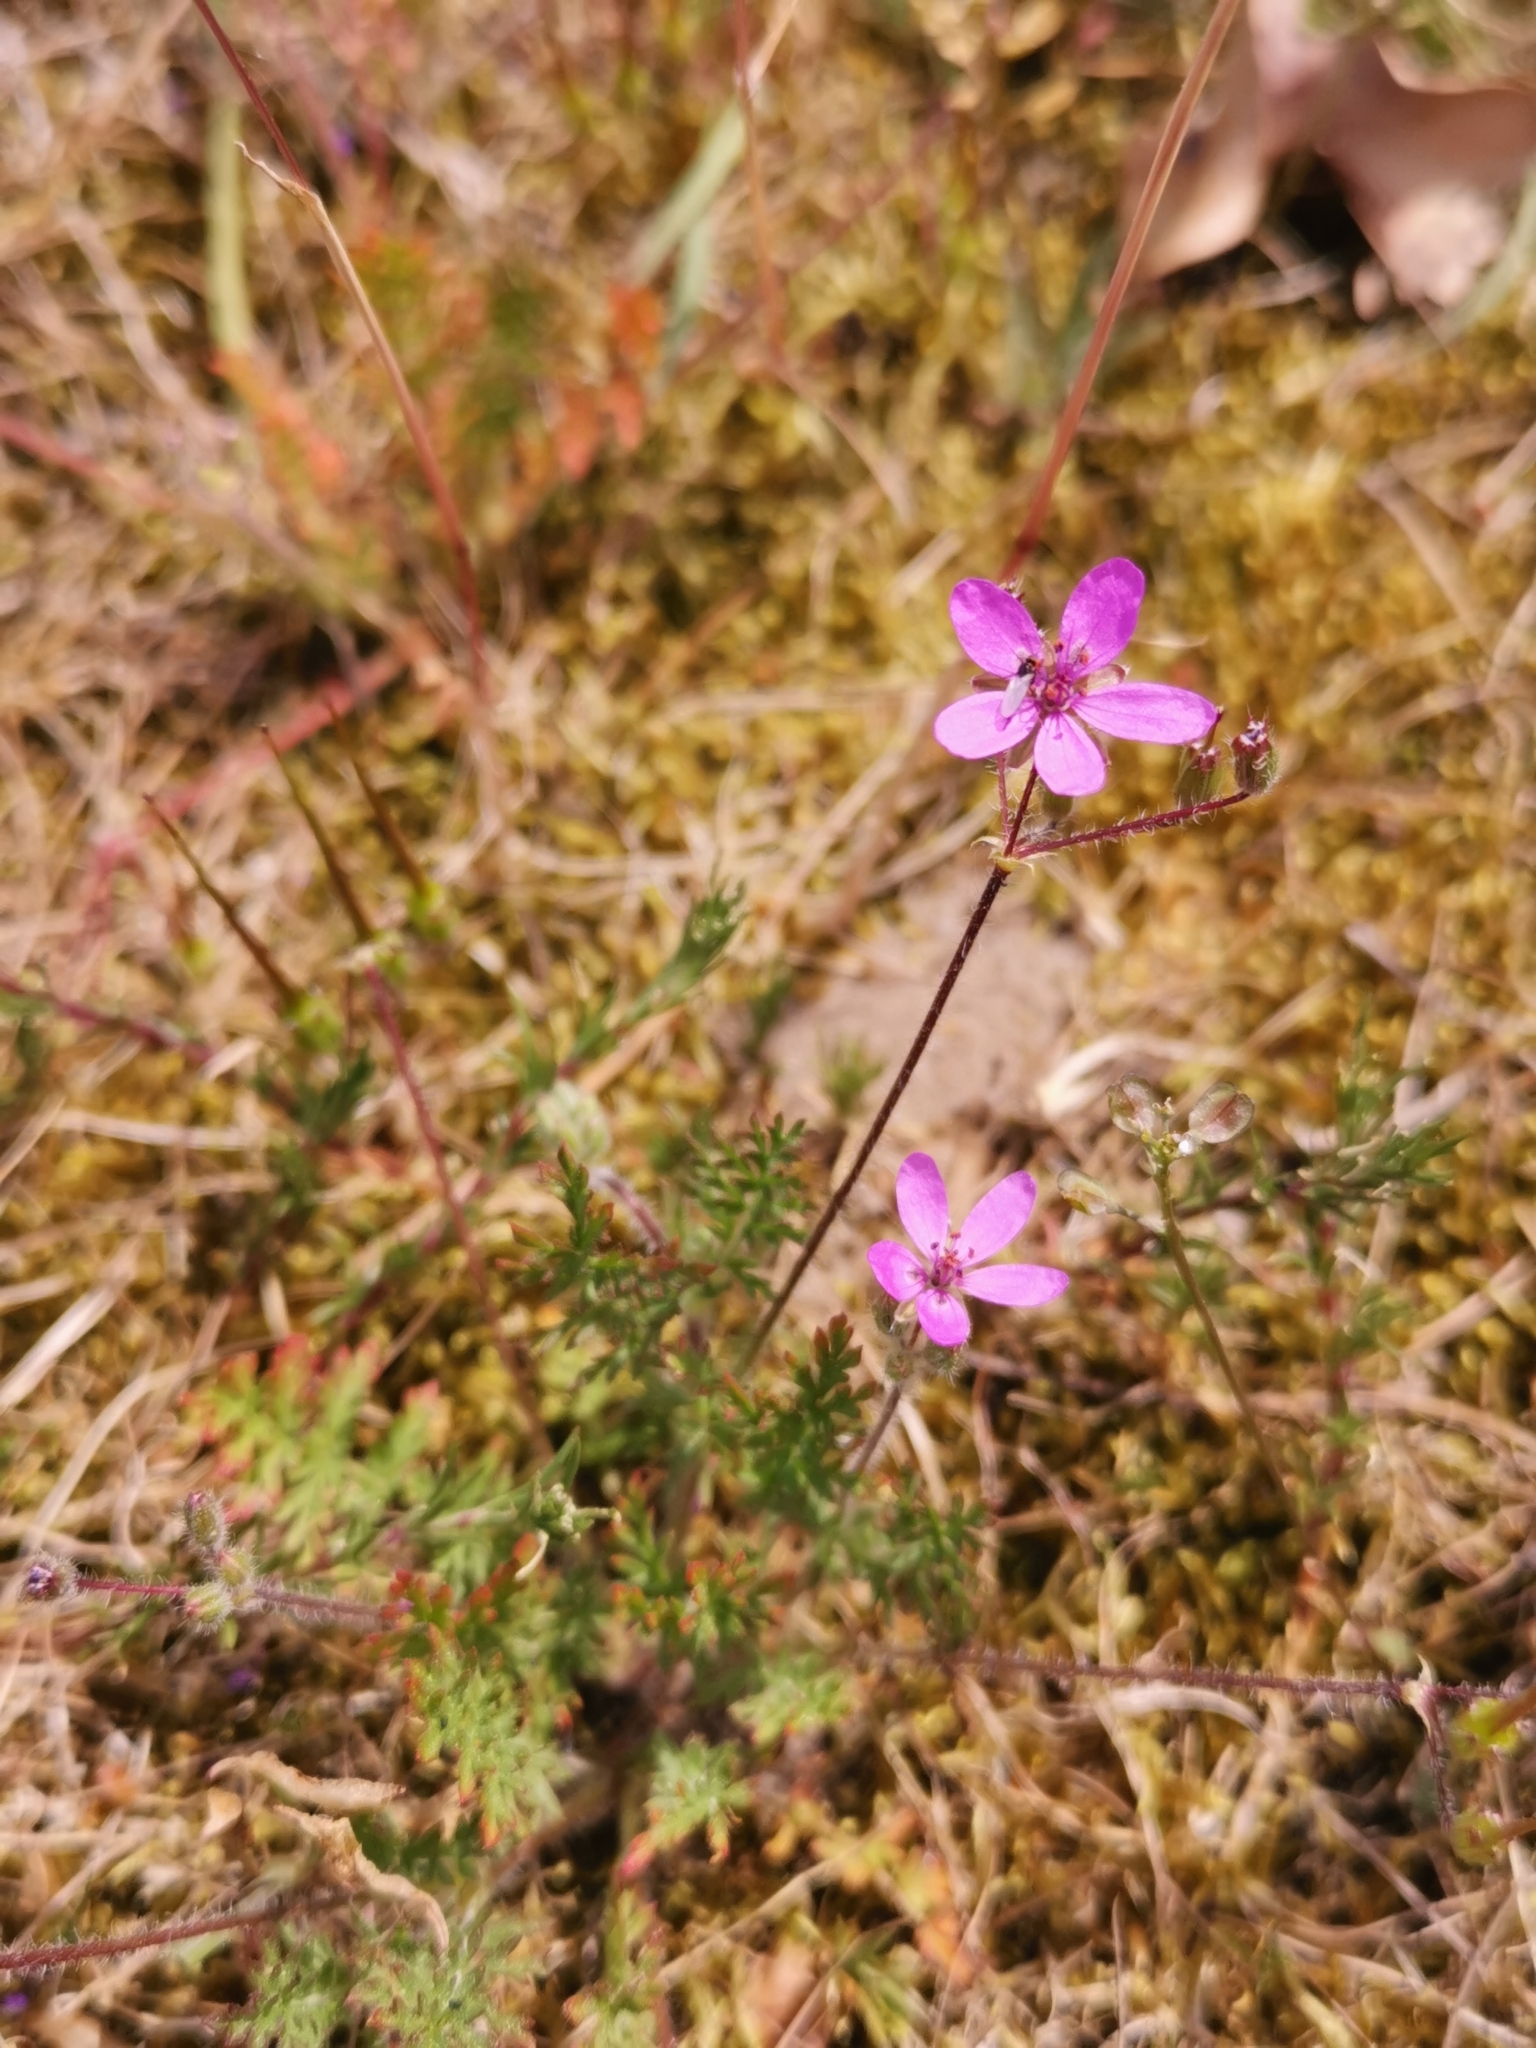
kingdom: Plantae
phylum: Tracheophyta
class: Magnoliopsida
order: Geraniales
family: Geraniaceae
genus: Erodium
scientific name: Erodium cicutarium
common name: Common stork's-bill
